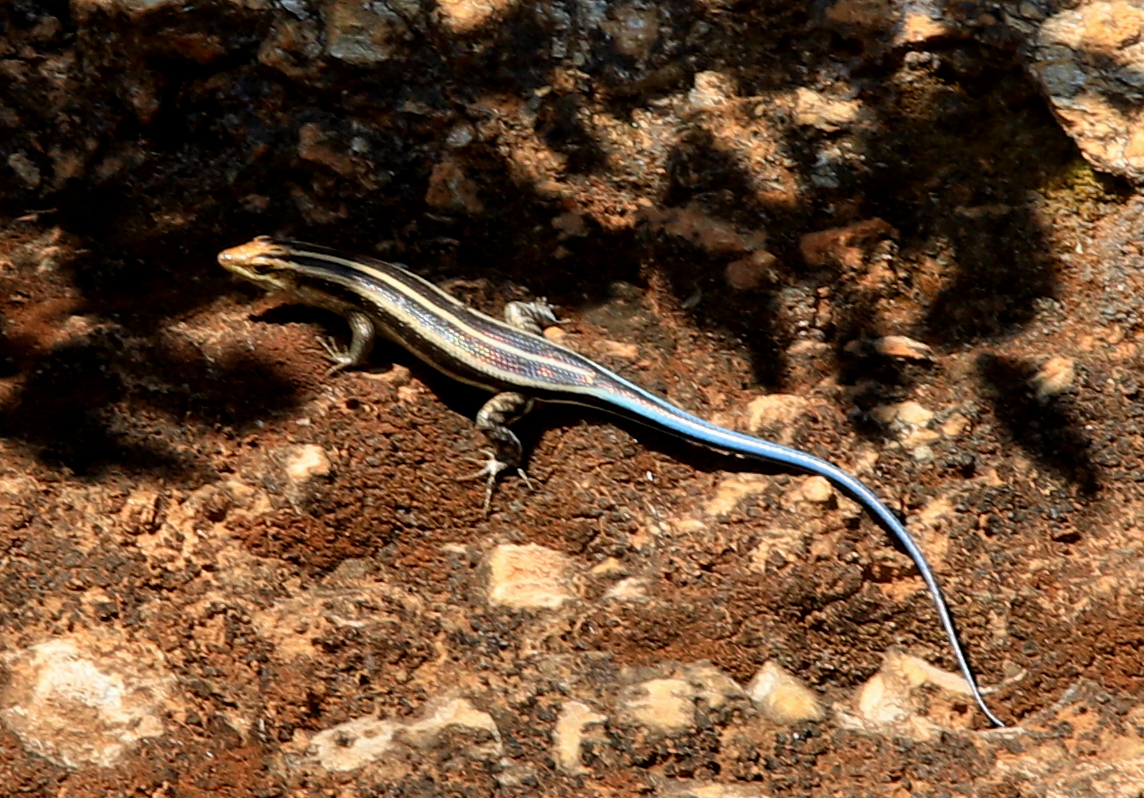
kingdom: Animalia
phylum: Chordata
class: Squamata
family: Scincidae
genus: Trachylepis
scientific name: Trachylepis margaritifera
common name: Rainbow skink
